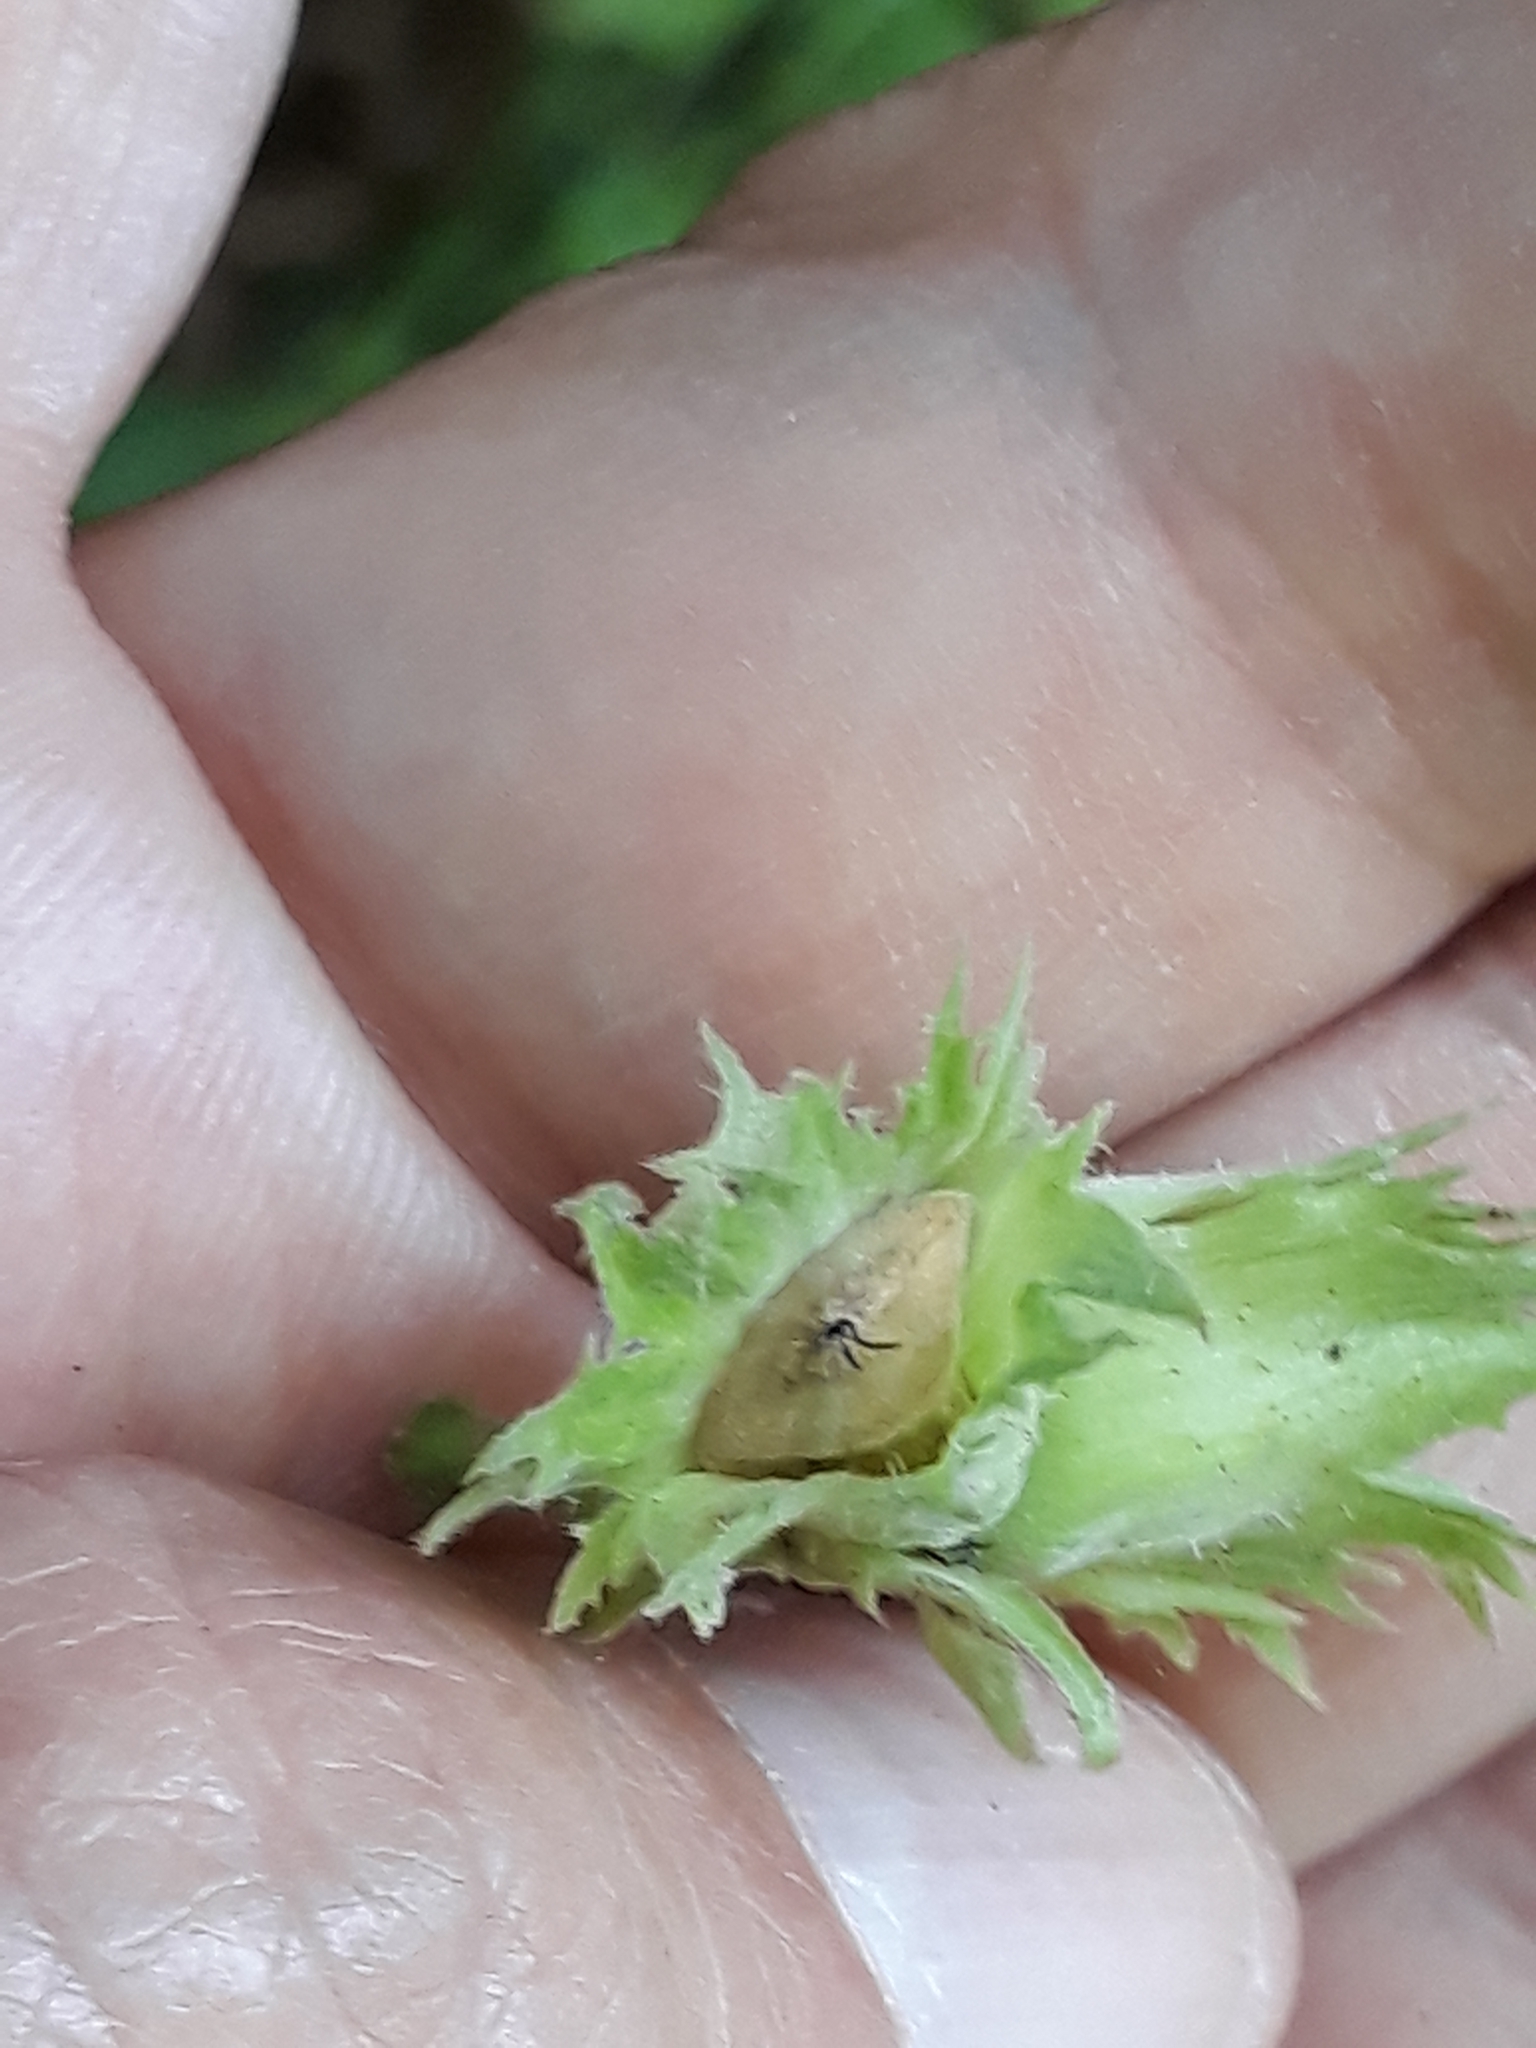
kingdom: Plantae
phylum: Tracheophyta
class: Magnoliopsida
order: Fagales
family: Betulaceae
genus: Corylus
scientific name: Corylus avellana
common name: European hazel
